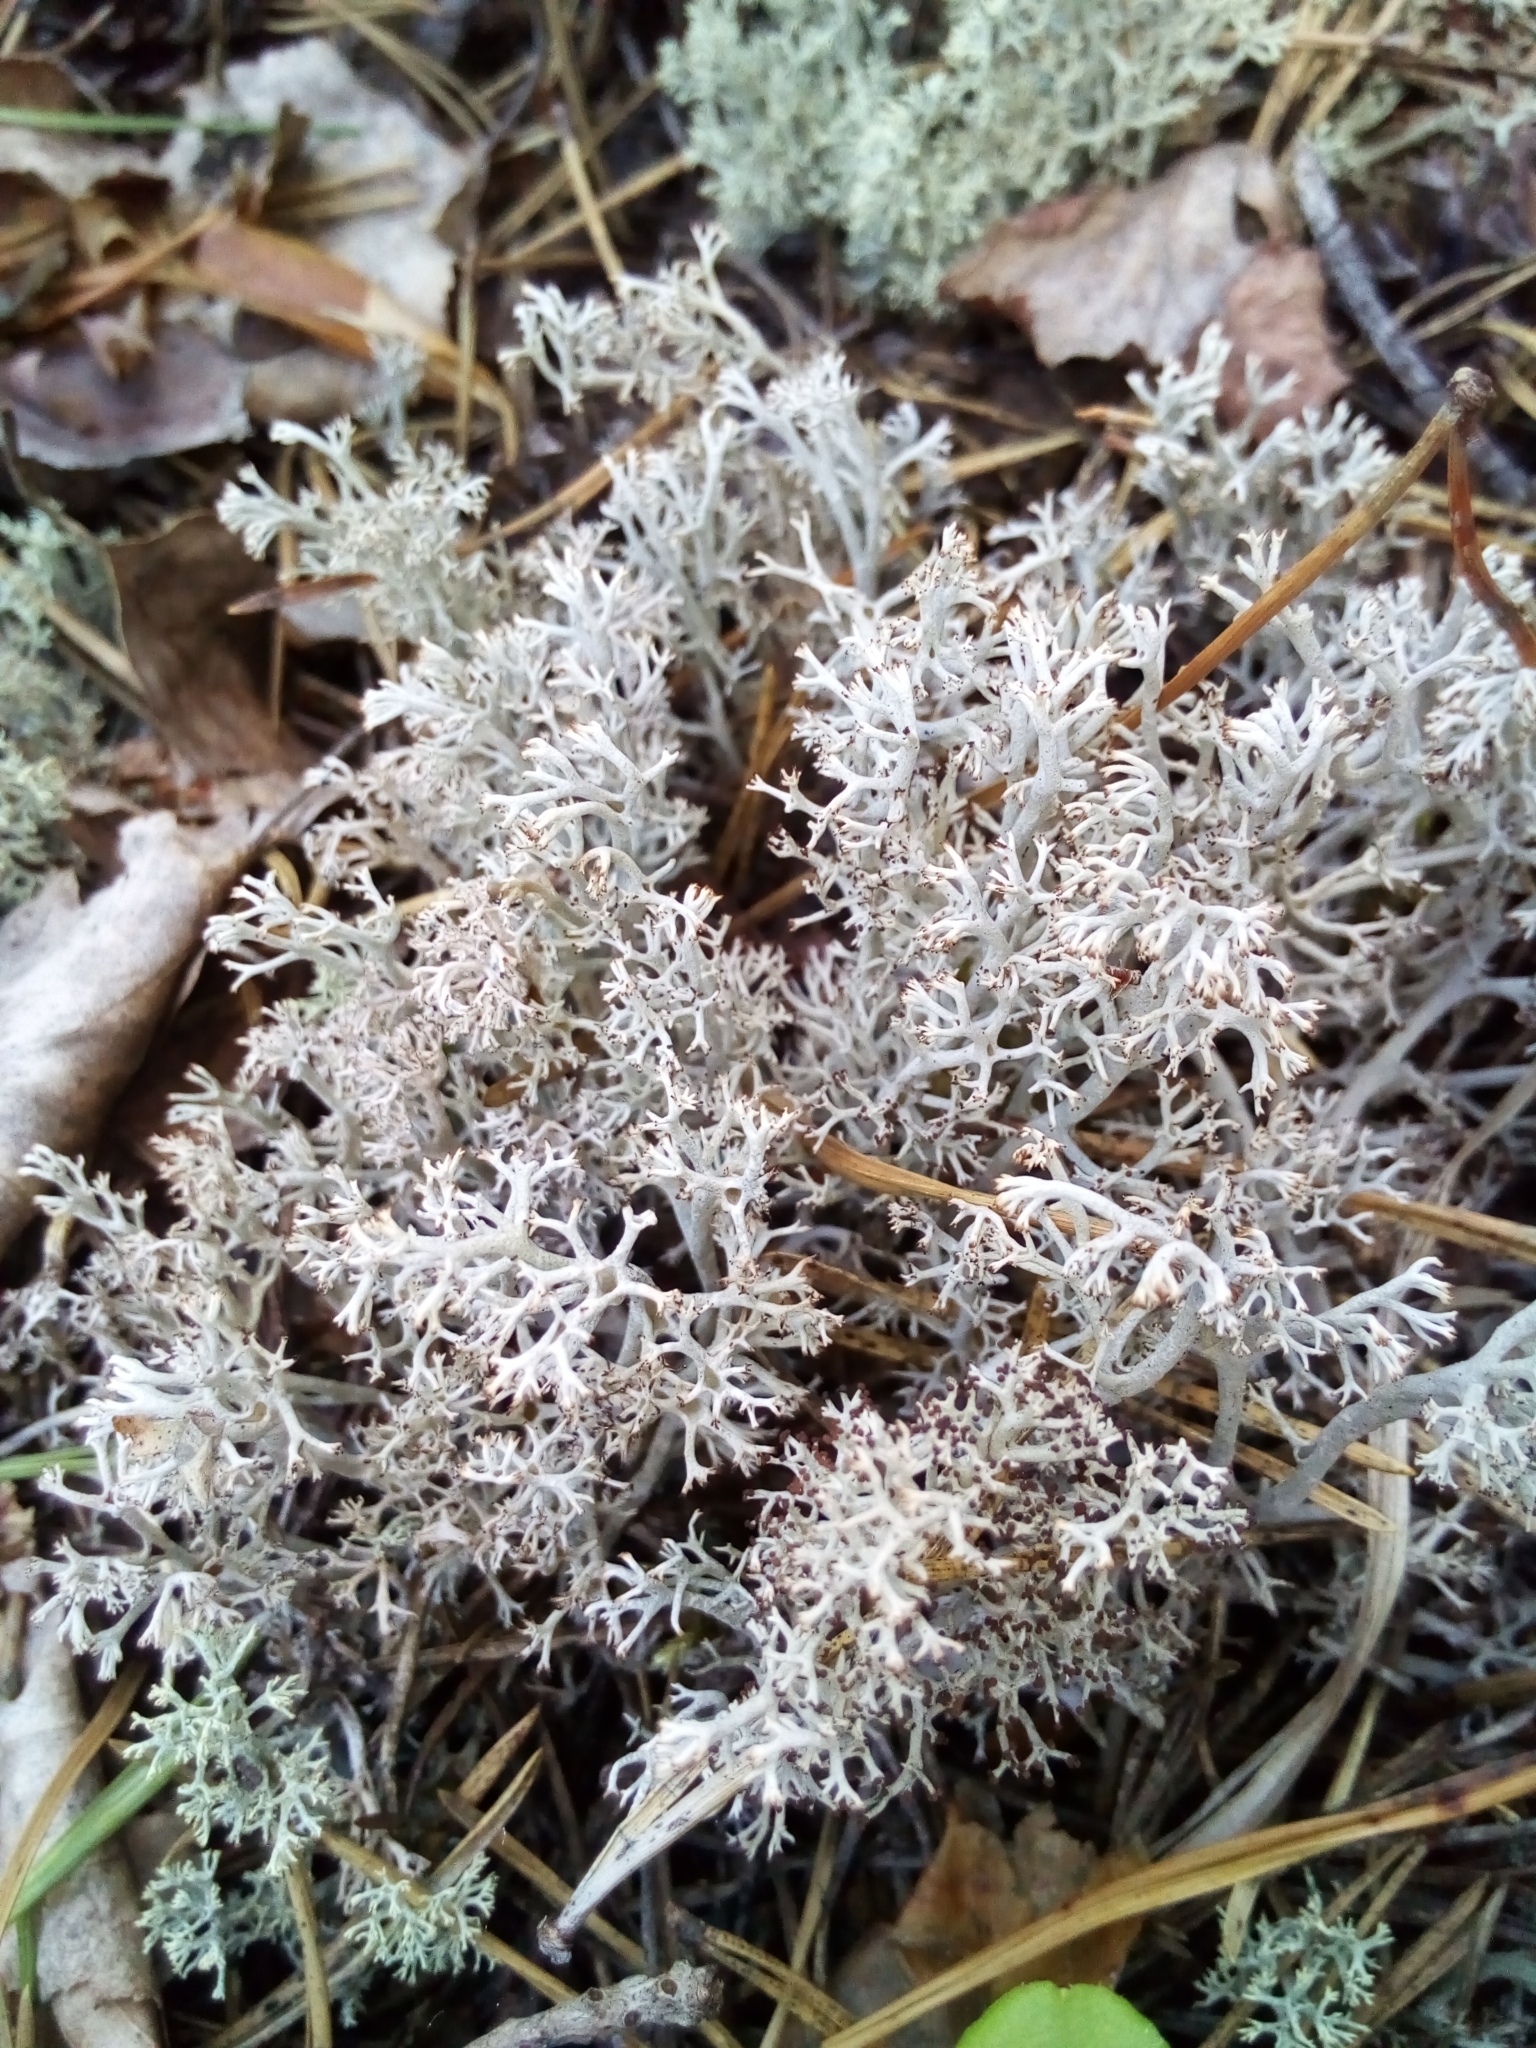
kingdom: Fungi
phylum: Ascomycota
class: Lecanoromycetes
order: Lecanorales
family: Cladoniaceae
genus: Cladonia
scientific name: Cladonia rangiferina
